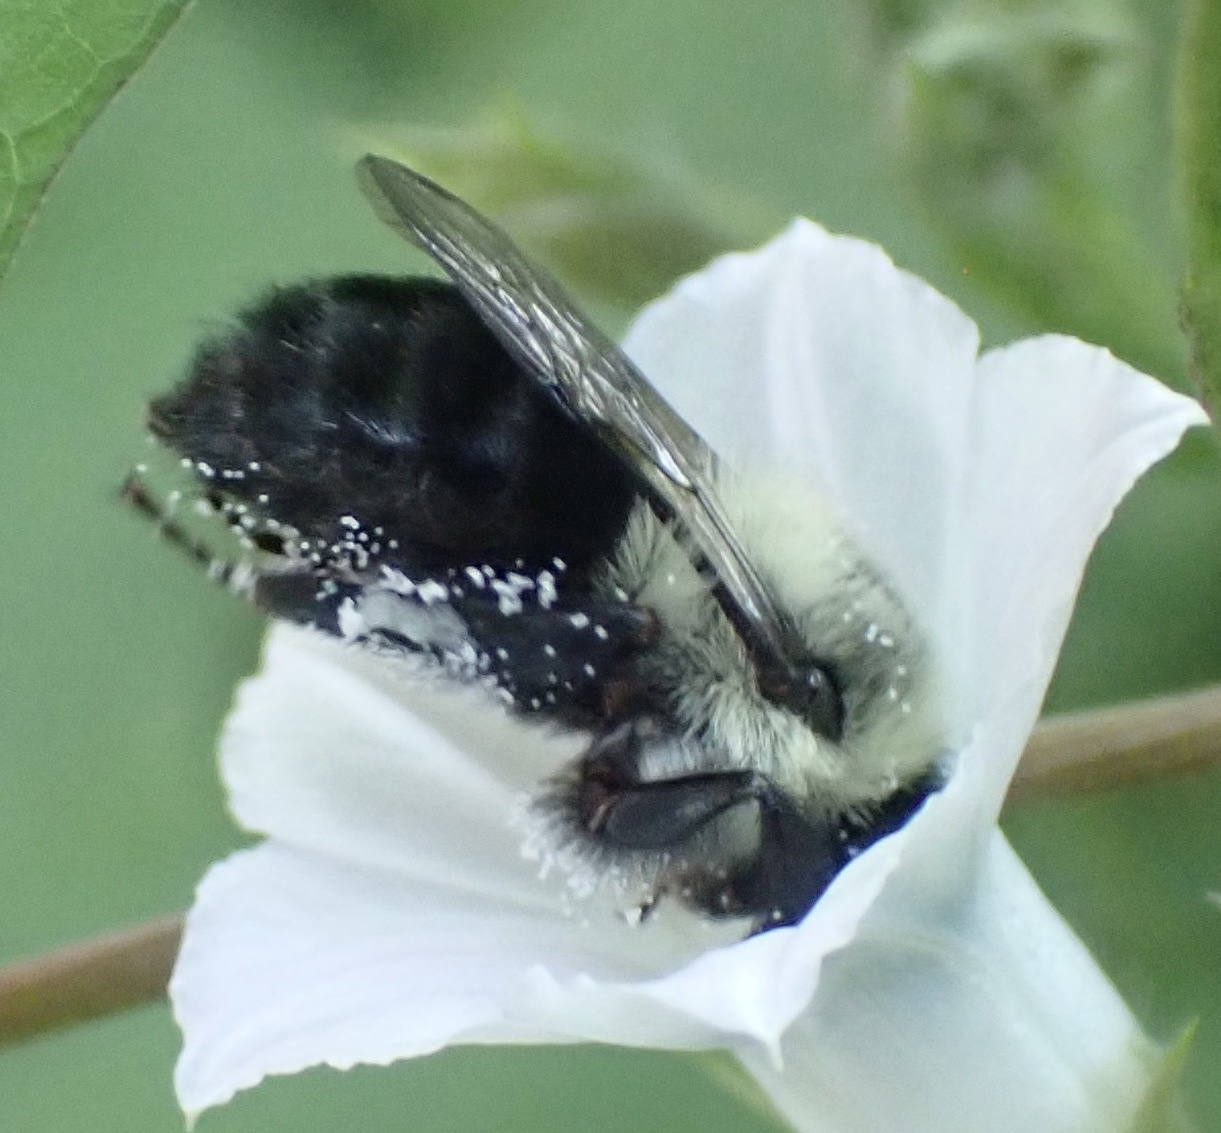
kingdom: Animalia
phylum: Arthropoda
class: Insecta
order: Hymenoptera
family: Apidae
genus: Bombus
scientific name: Bombus impatiens
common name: Common eastern bumble bee
